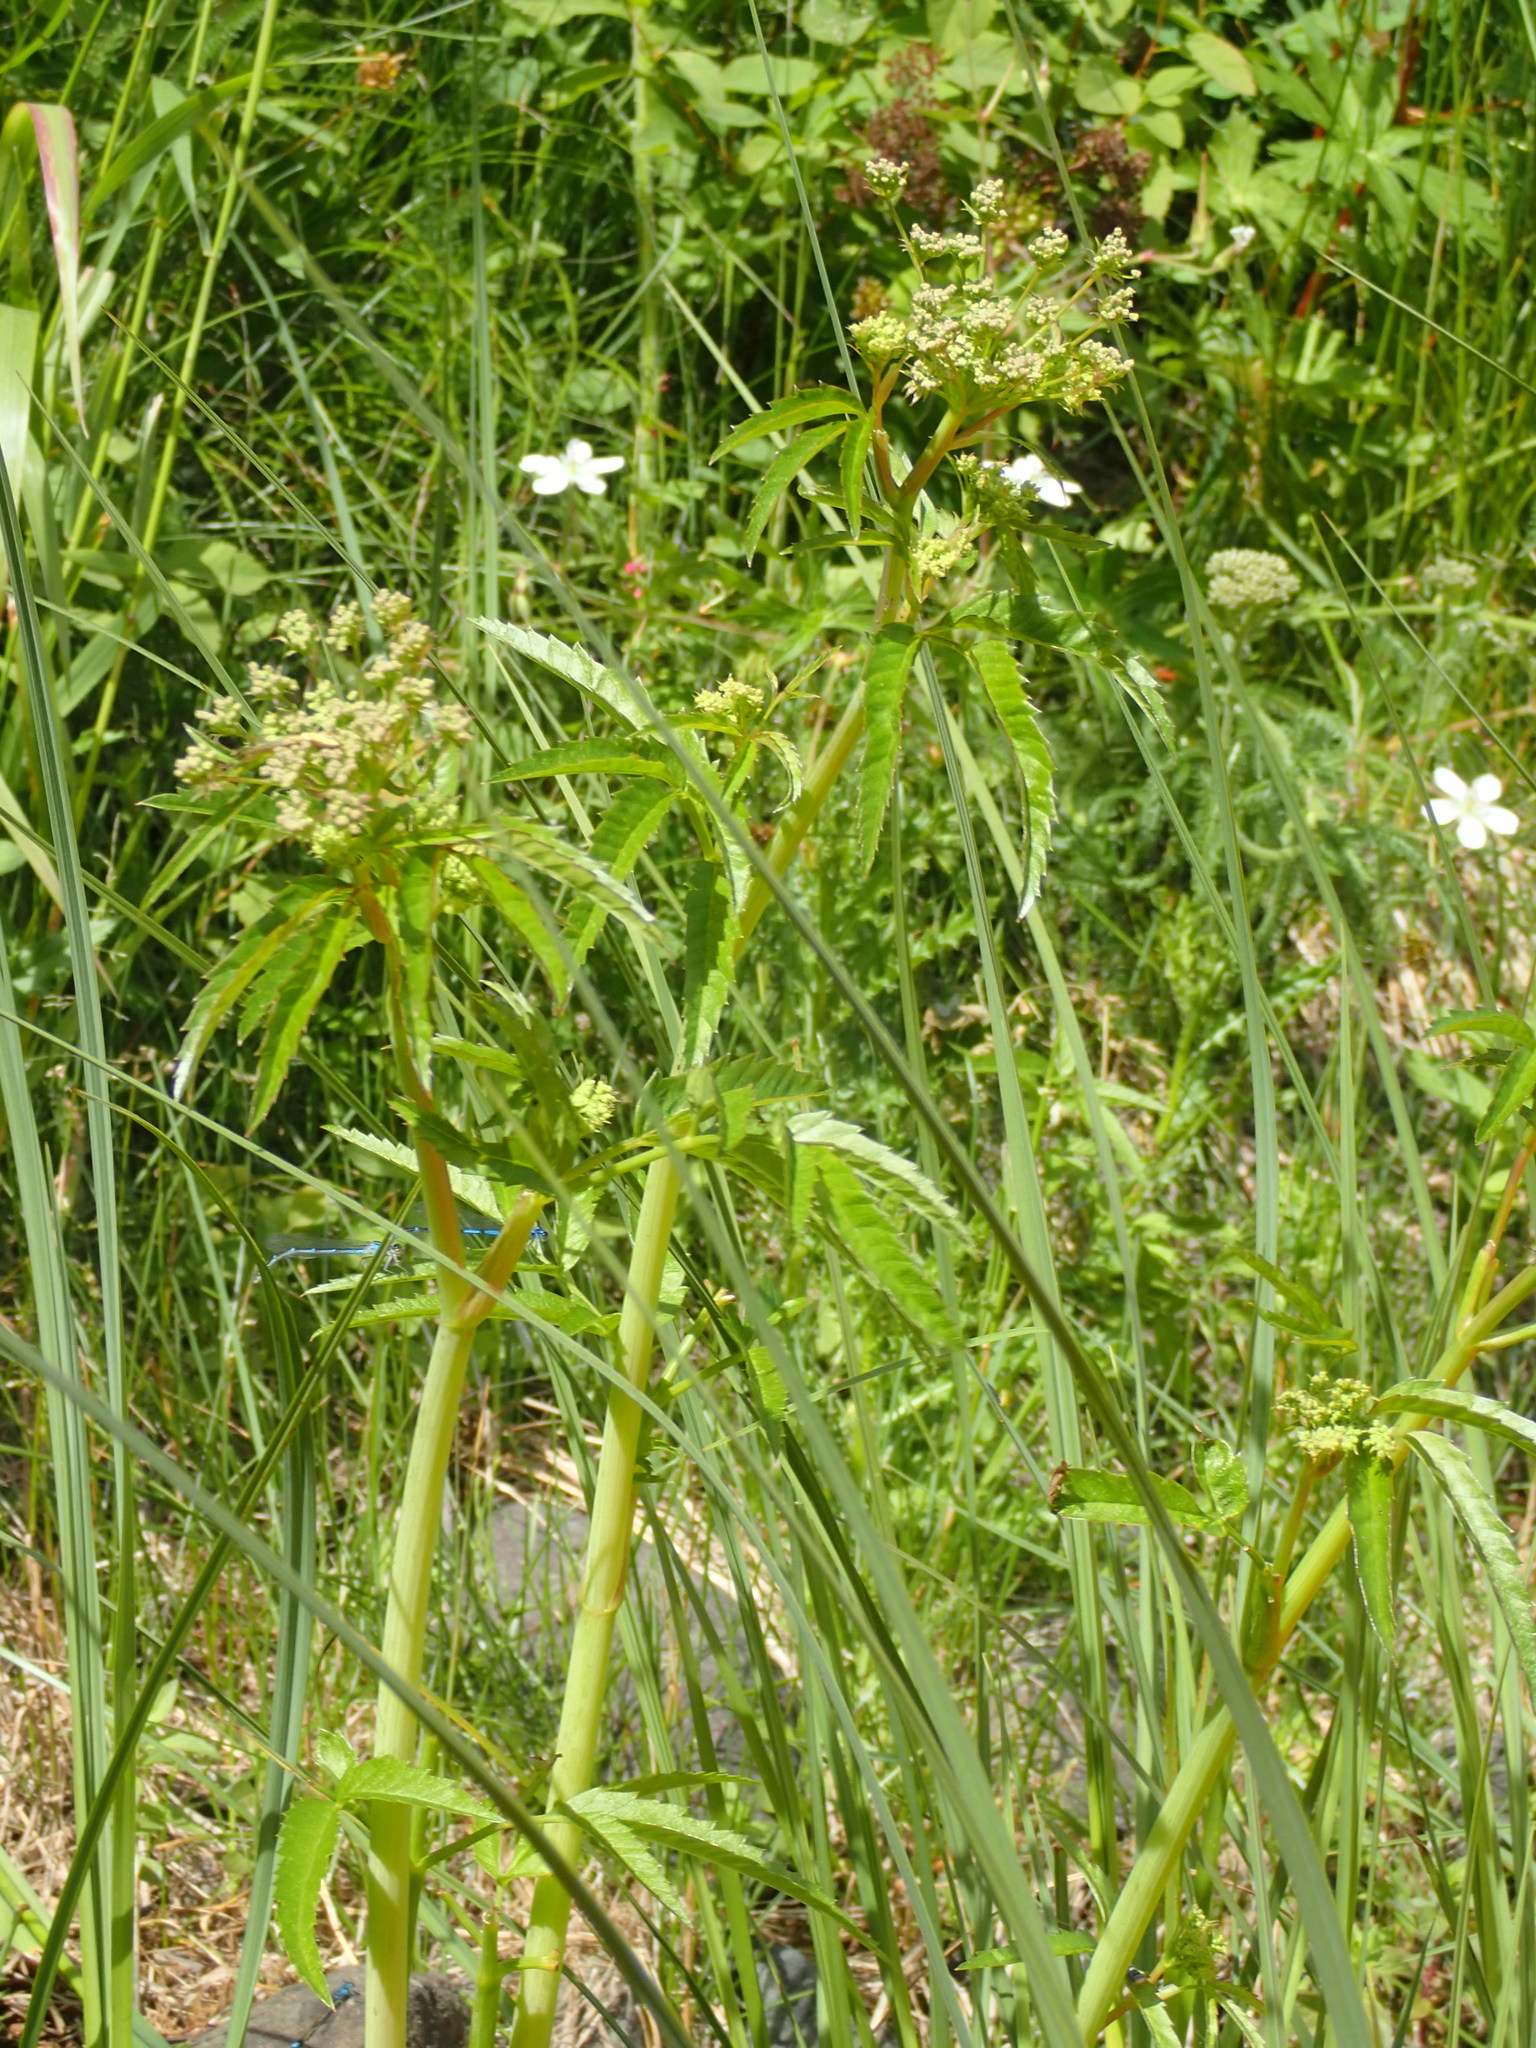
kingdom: Plantae
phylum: Tracheophyta
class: Magnoliopsida
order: Apiales
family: Apiaceae
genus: Cicuta
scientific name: Cicuta maculata
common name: Spotted cowbane
